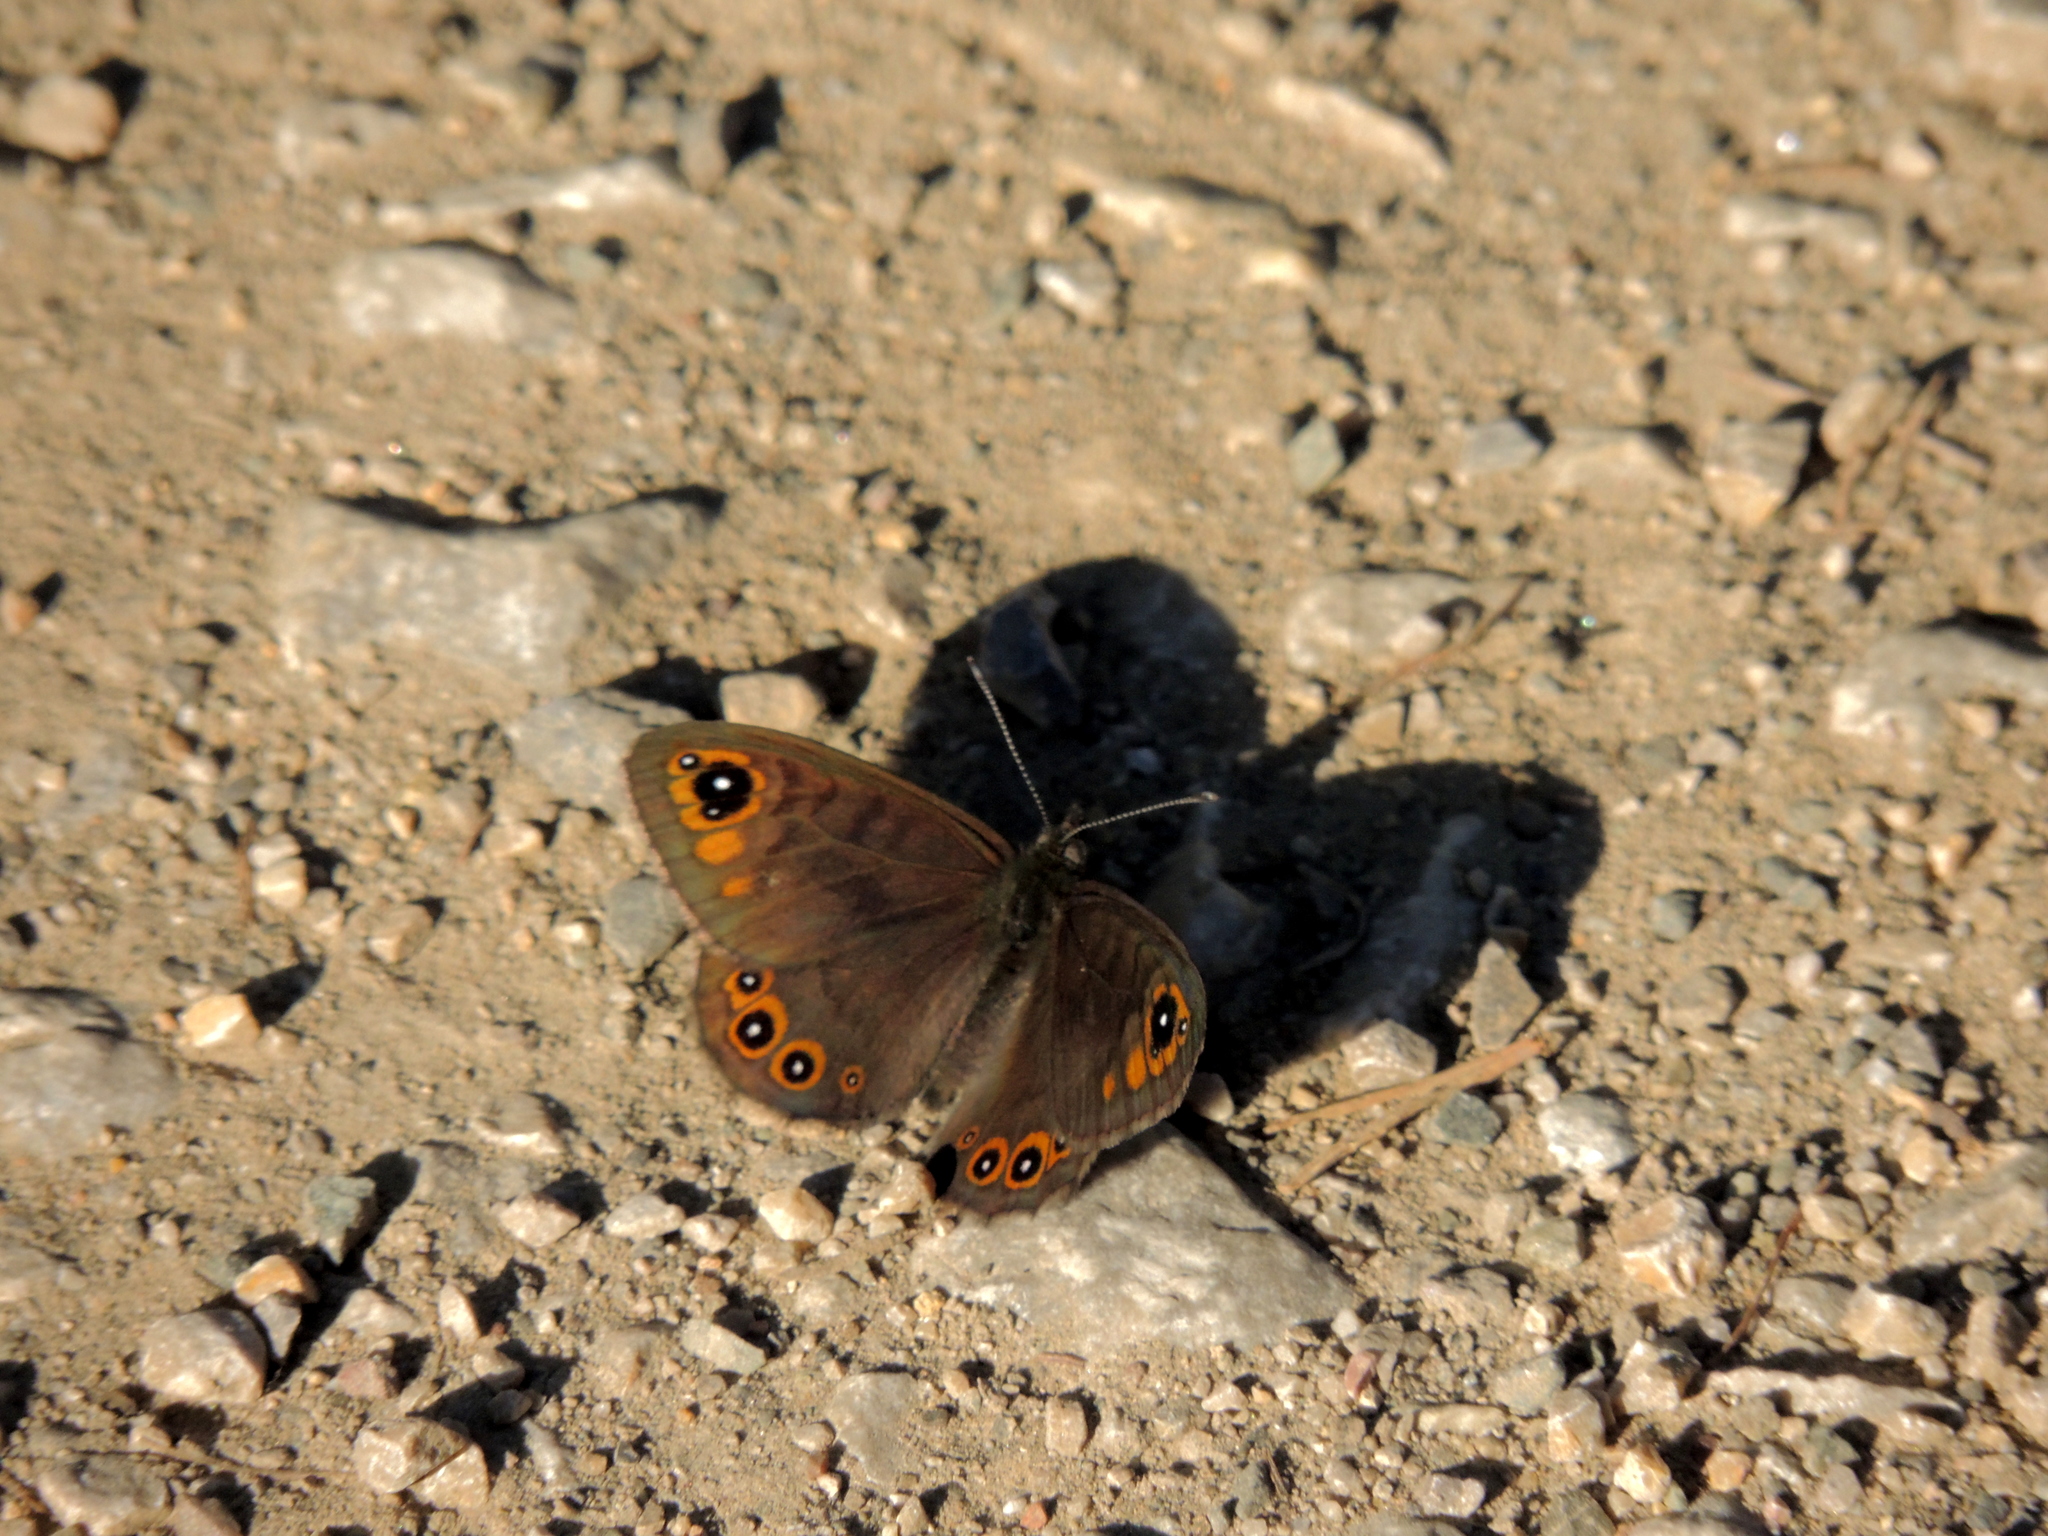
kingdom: Animalia
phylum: Arthropoda
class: Insecta
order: Lepidoptera
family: Nymphalidae
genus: Pararge
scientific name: Pararge petropolitana
